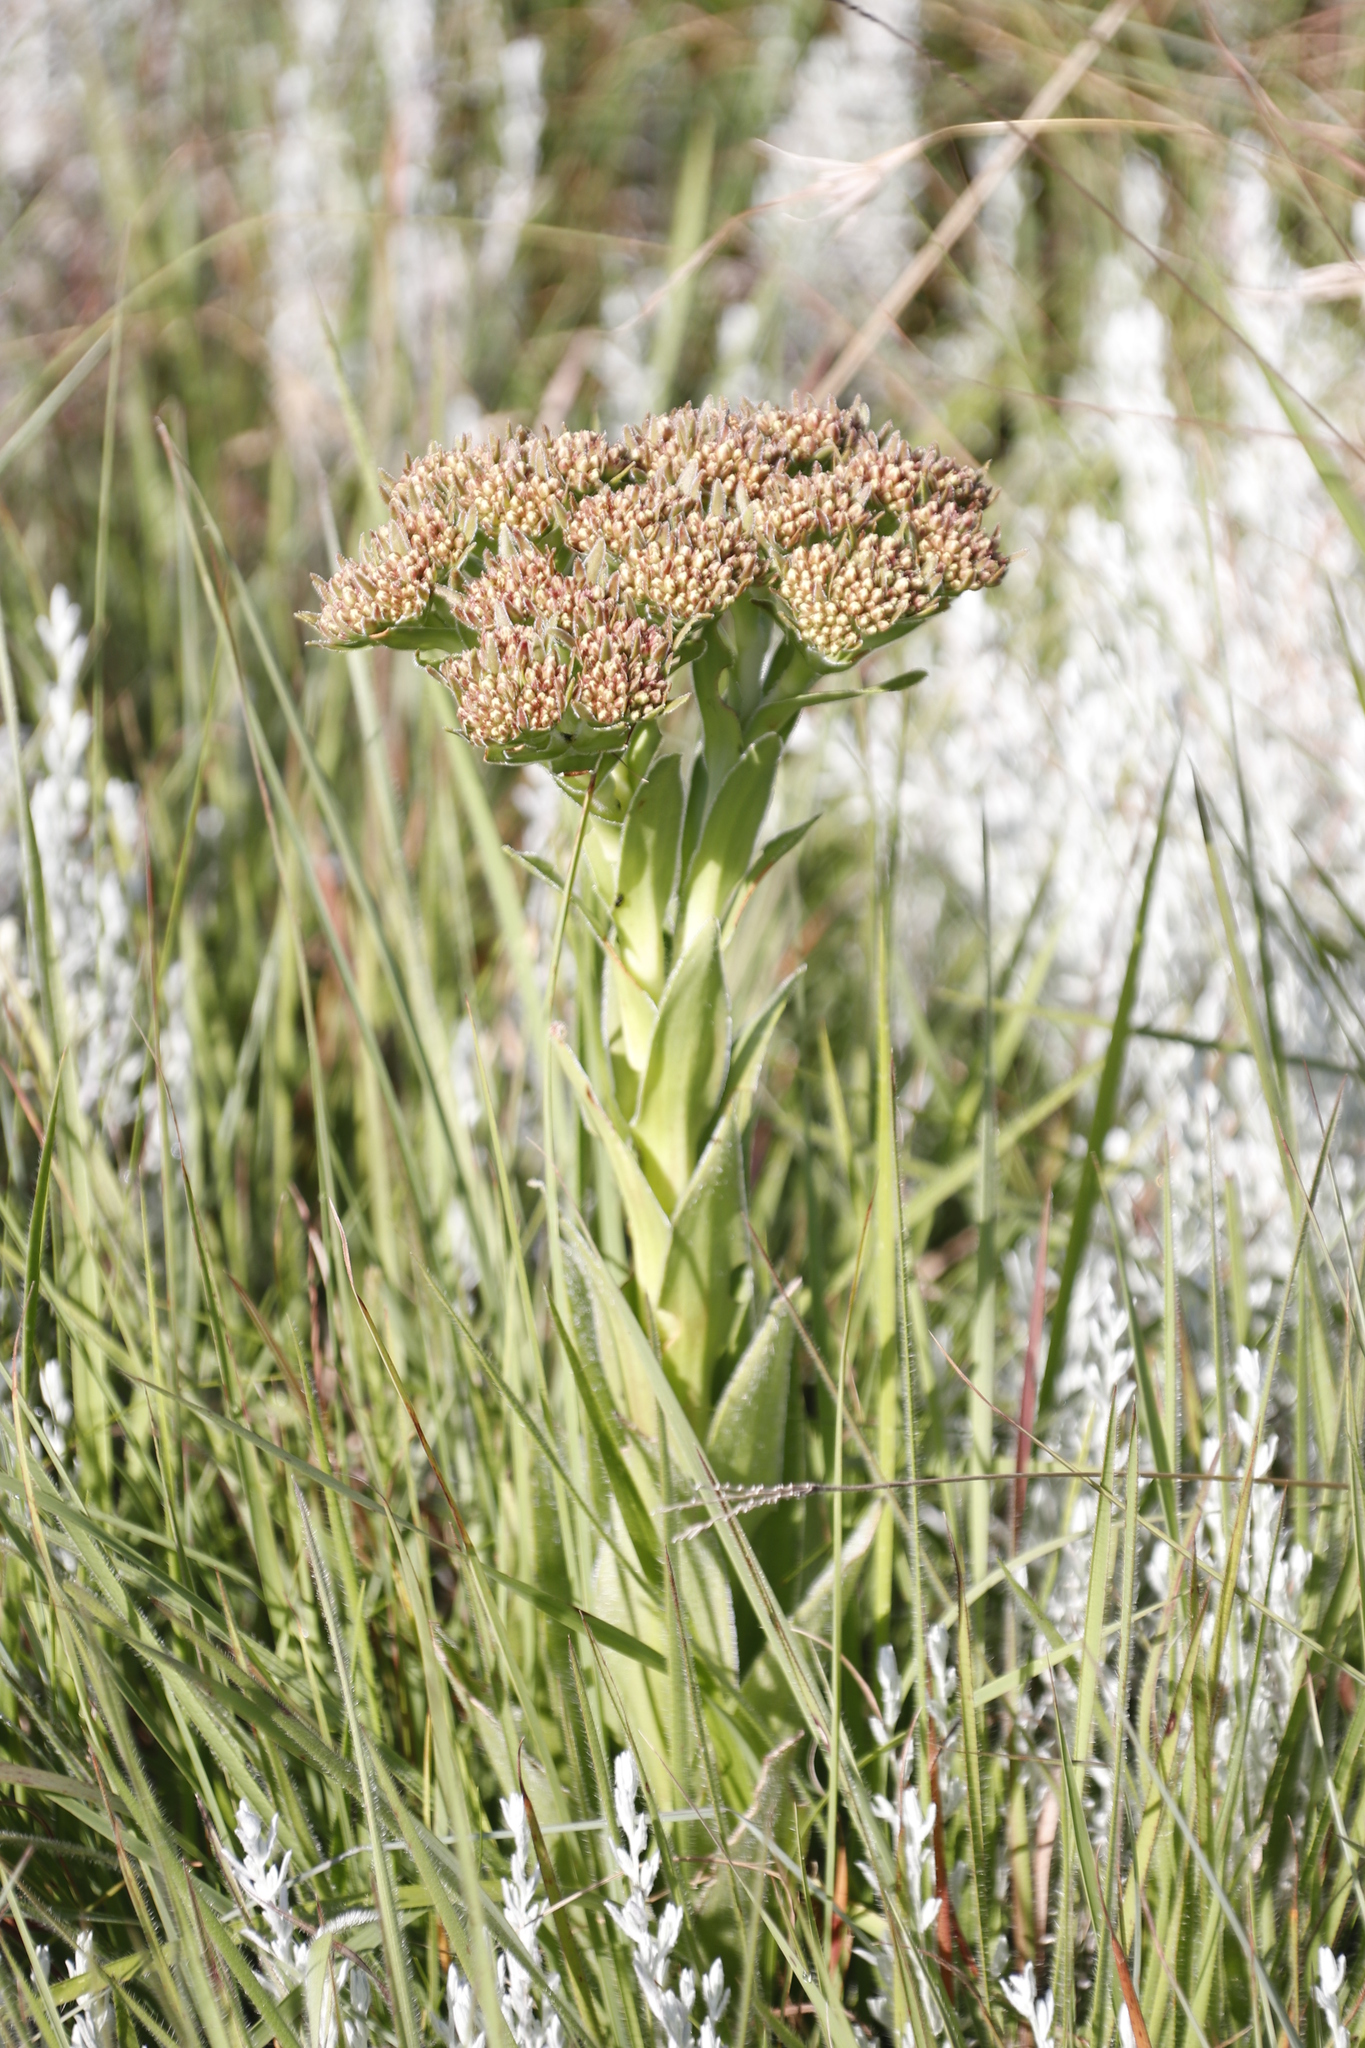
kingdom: Plantae
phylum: Tracheophyta
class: Magnoliopsida
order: Saxifragales
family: Crassulaceae
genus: Crassula
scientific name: Crassula alba
